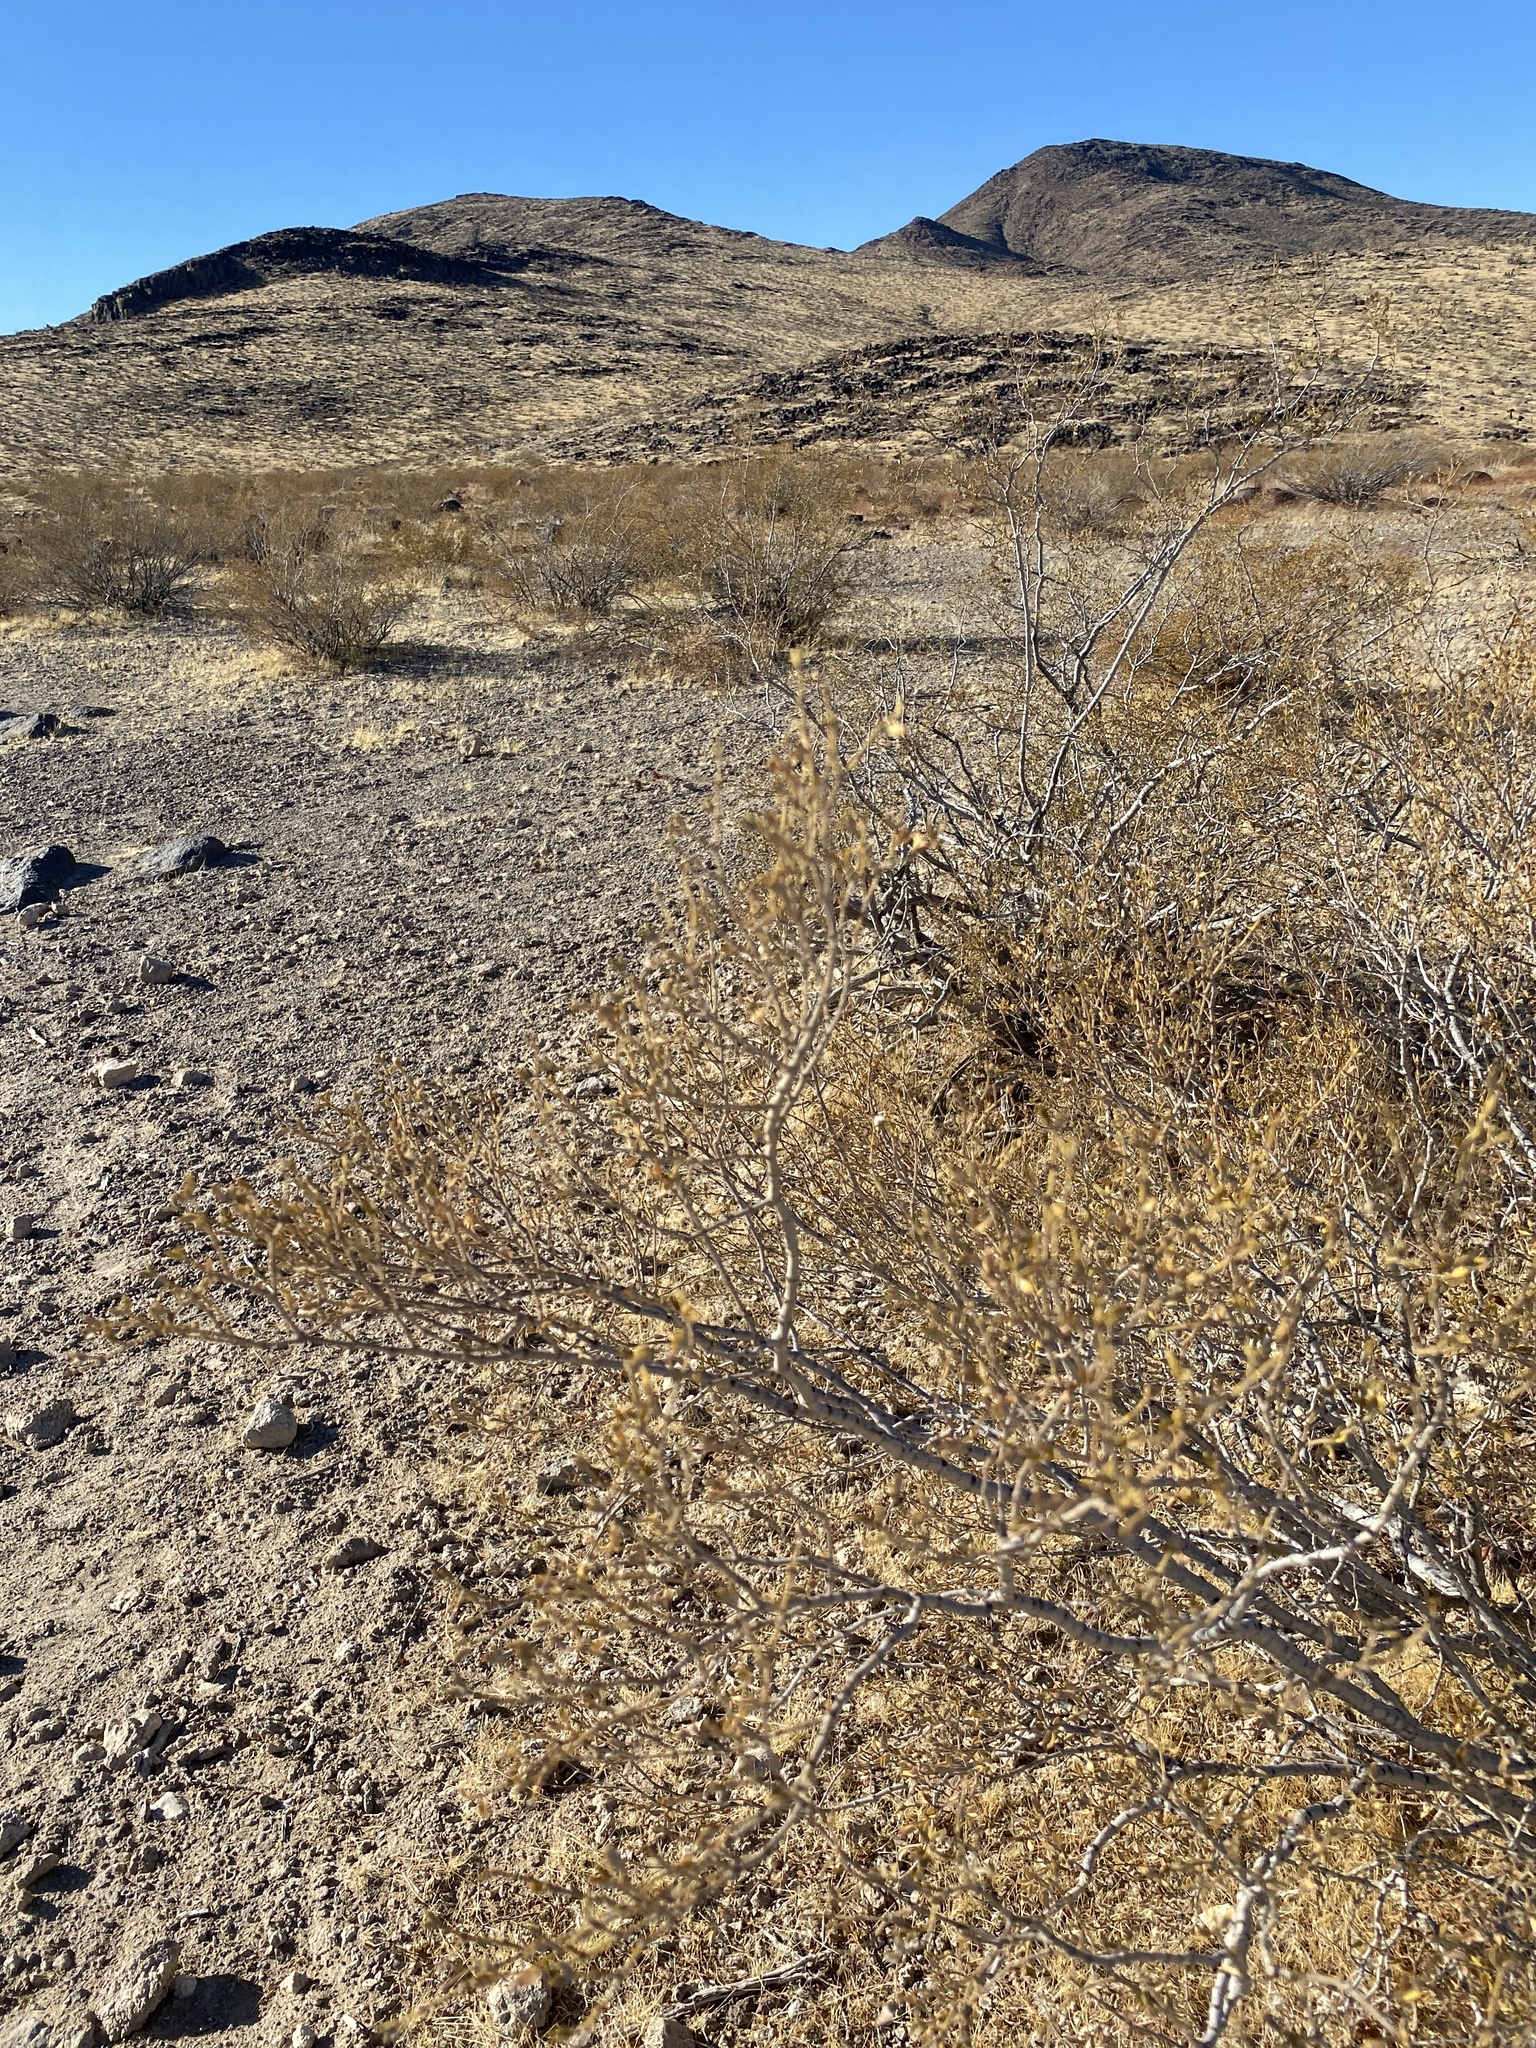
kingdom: Plantae
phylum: Tracheophyta
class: Magnoliopsida
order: Zygophyllales
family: Zygophyllaceae
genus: Larrea
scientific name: Larrea tridentata
